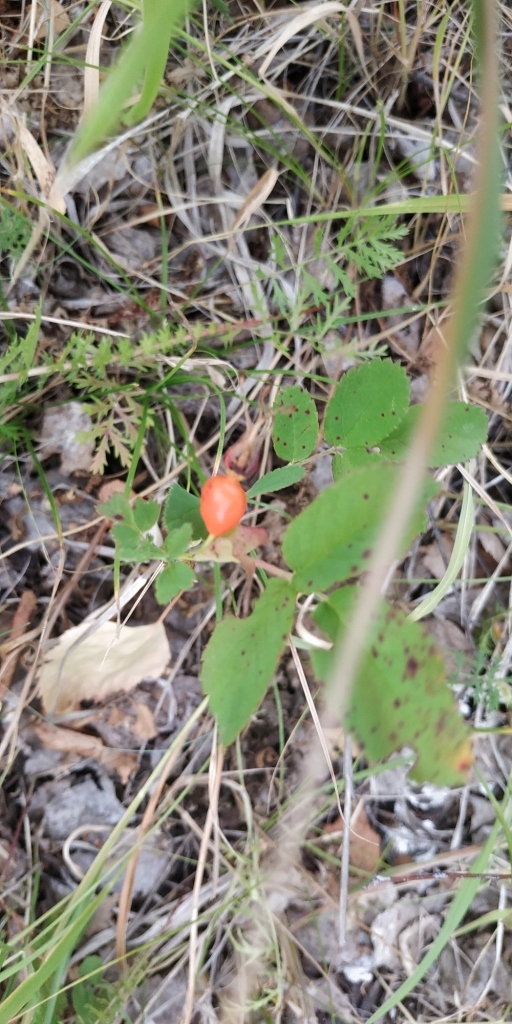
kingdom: Plantae
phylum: Tracheophyta
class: Magnoliopsida
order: Rosales
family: Rosaceae
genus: Rosa
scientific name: Rosa majalis
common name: Cinnamon rose
